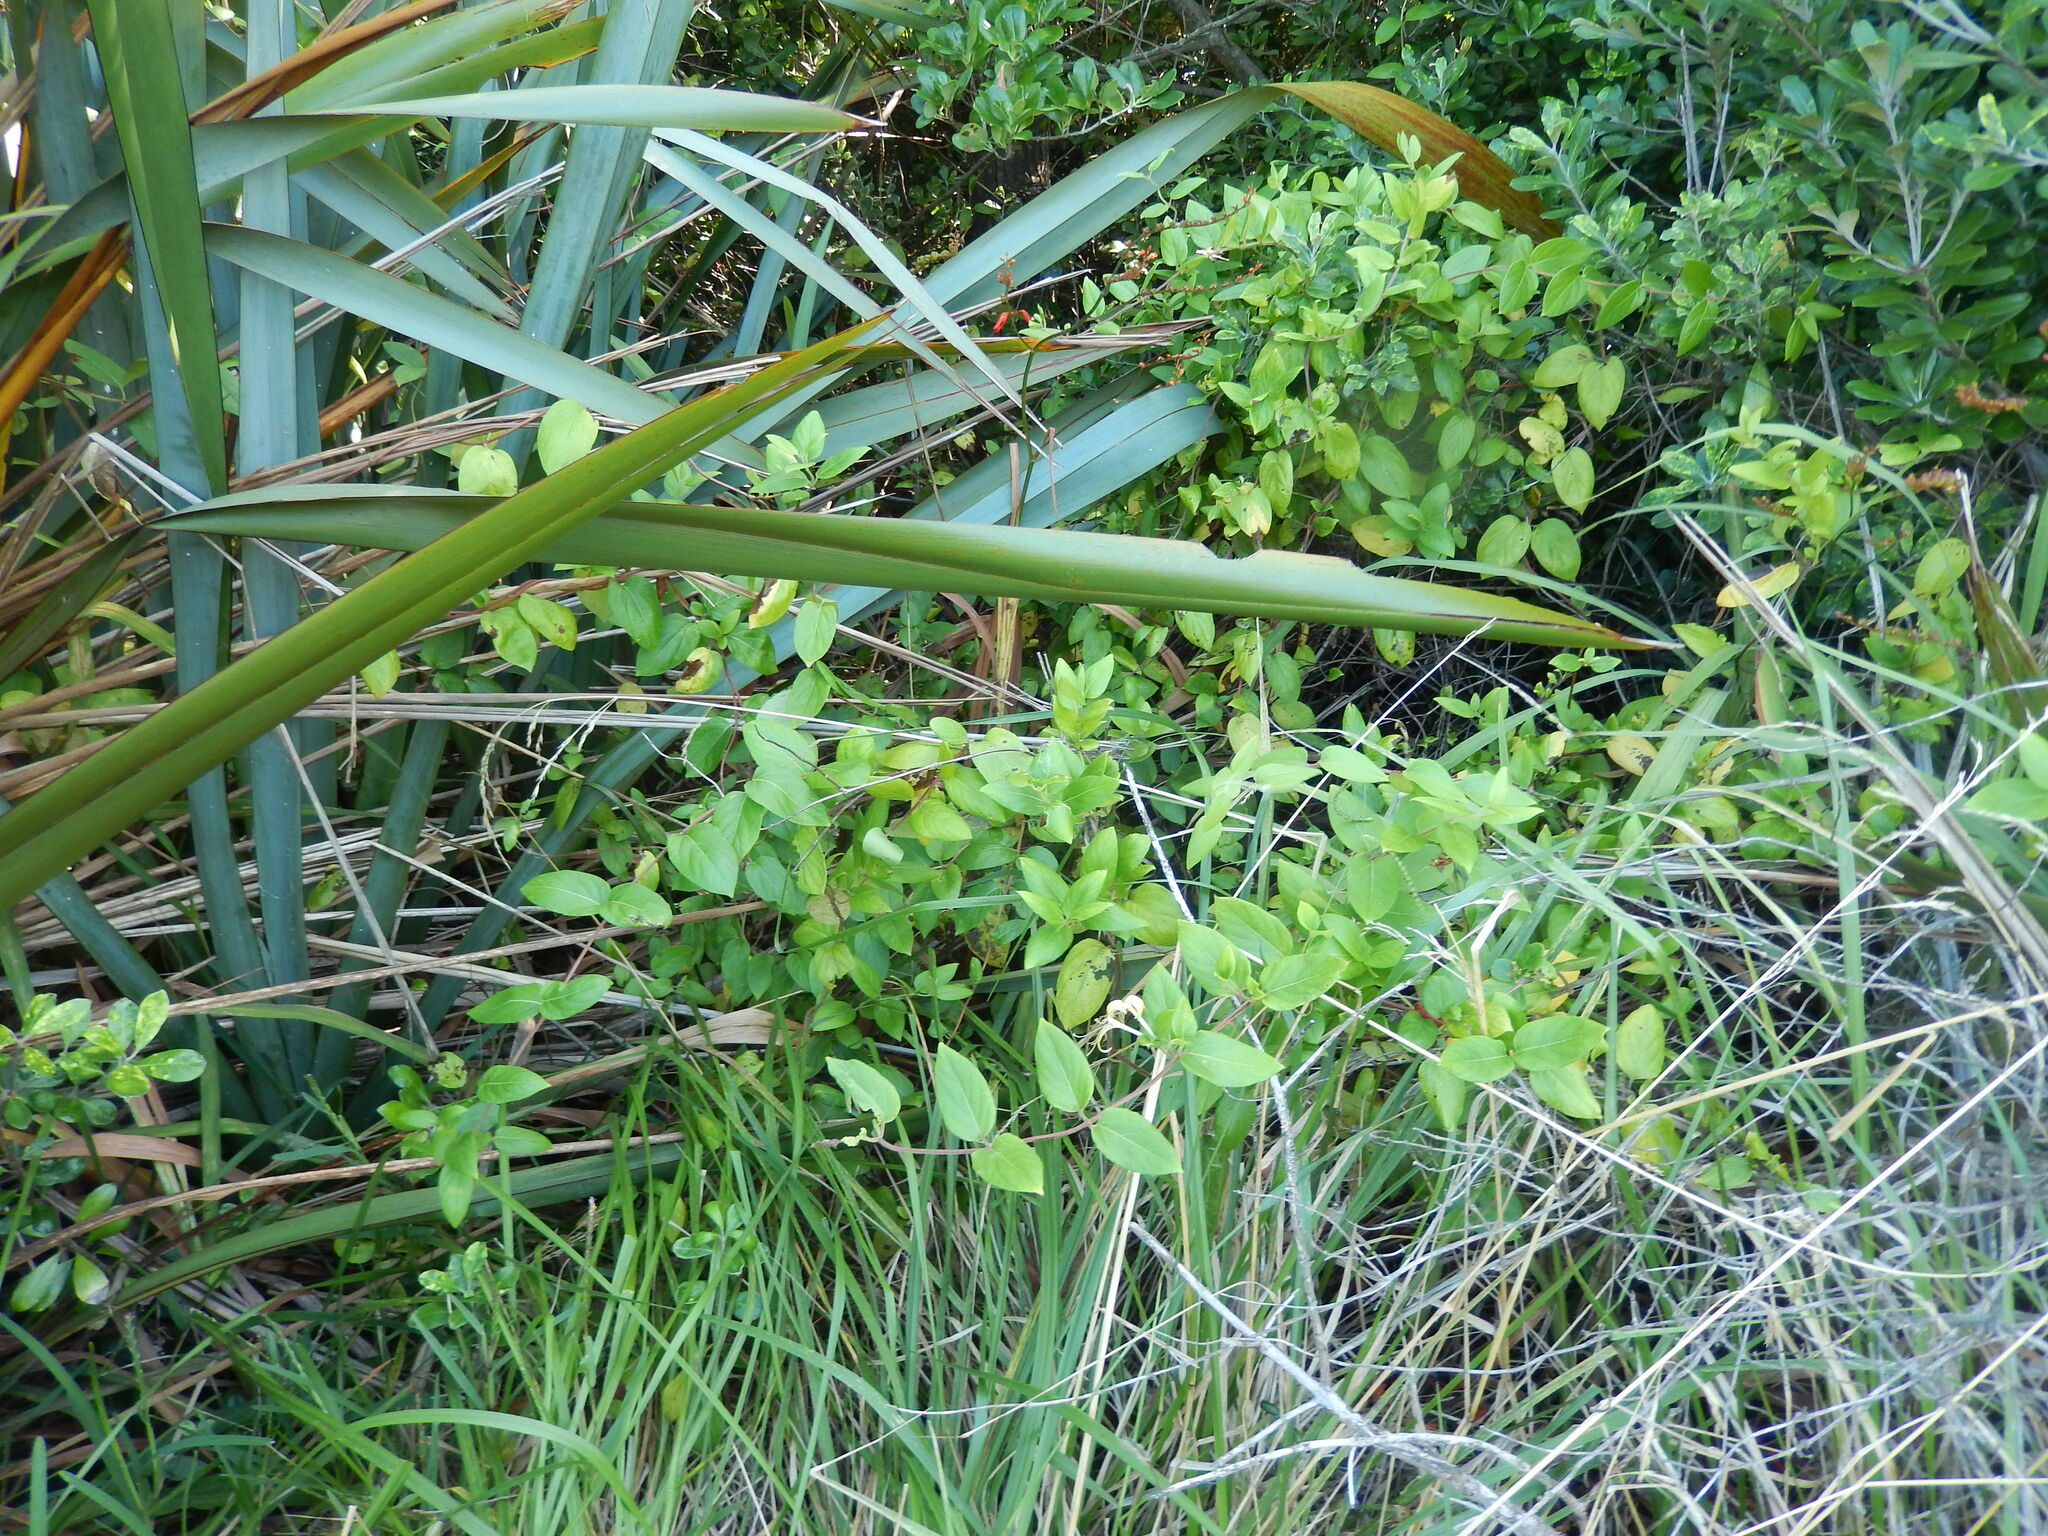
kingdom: Plantae
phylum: Tracheophyta
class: Magnoliopsida
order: Dipsacales
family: Caprifoliaceae
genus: Lonicera
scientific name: Lonicera japonica
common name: Japanese honeysuckle
